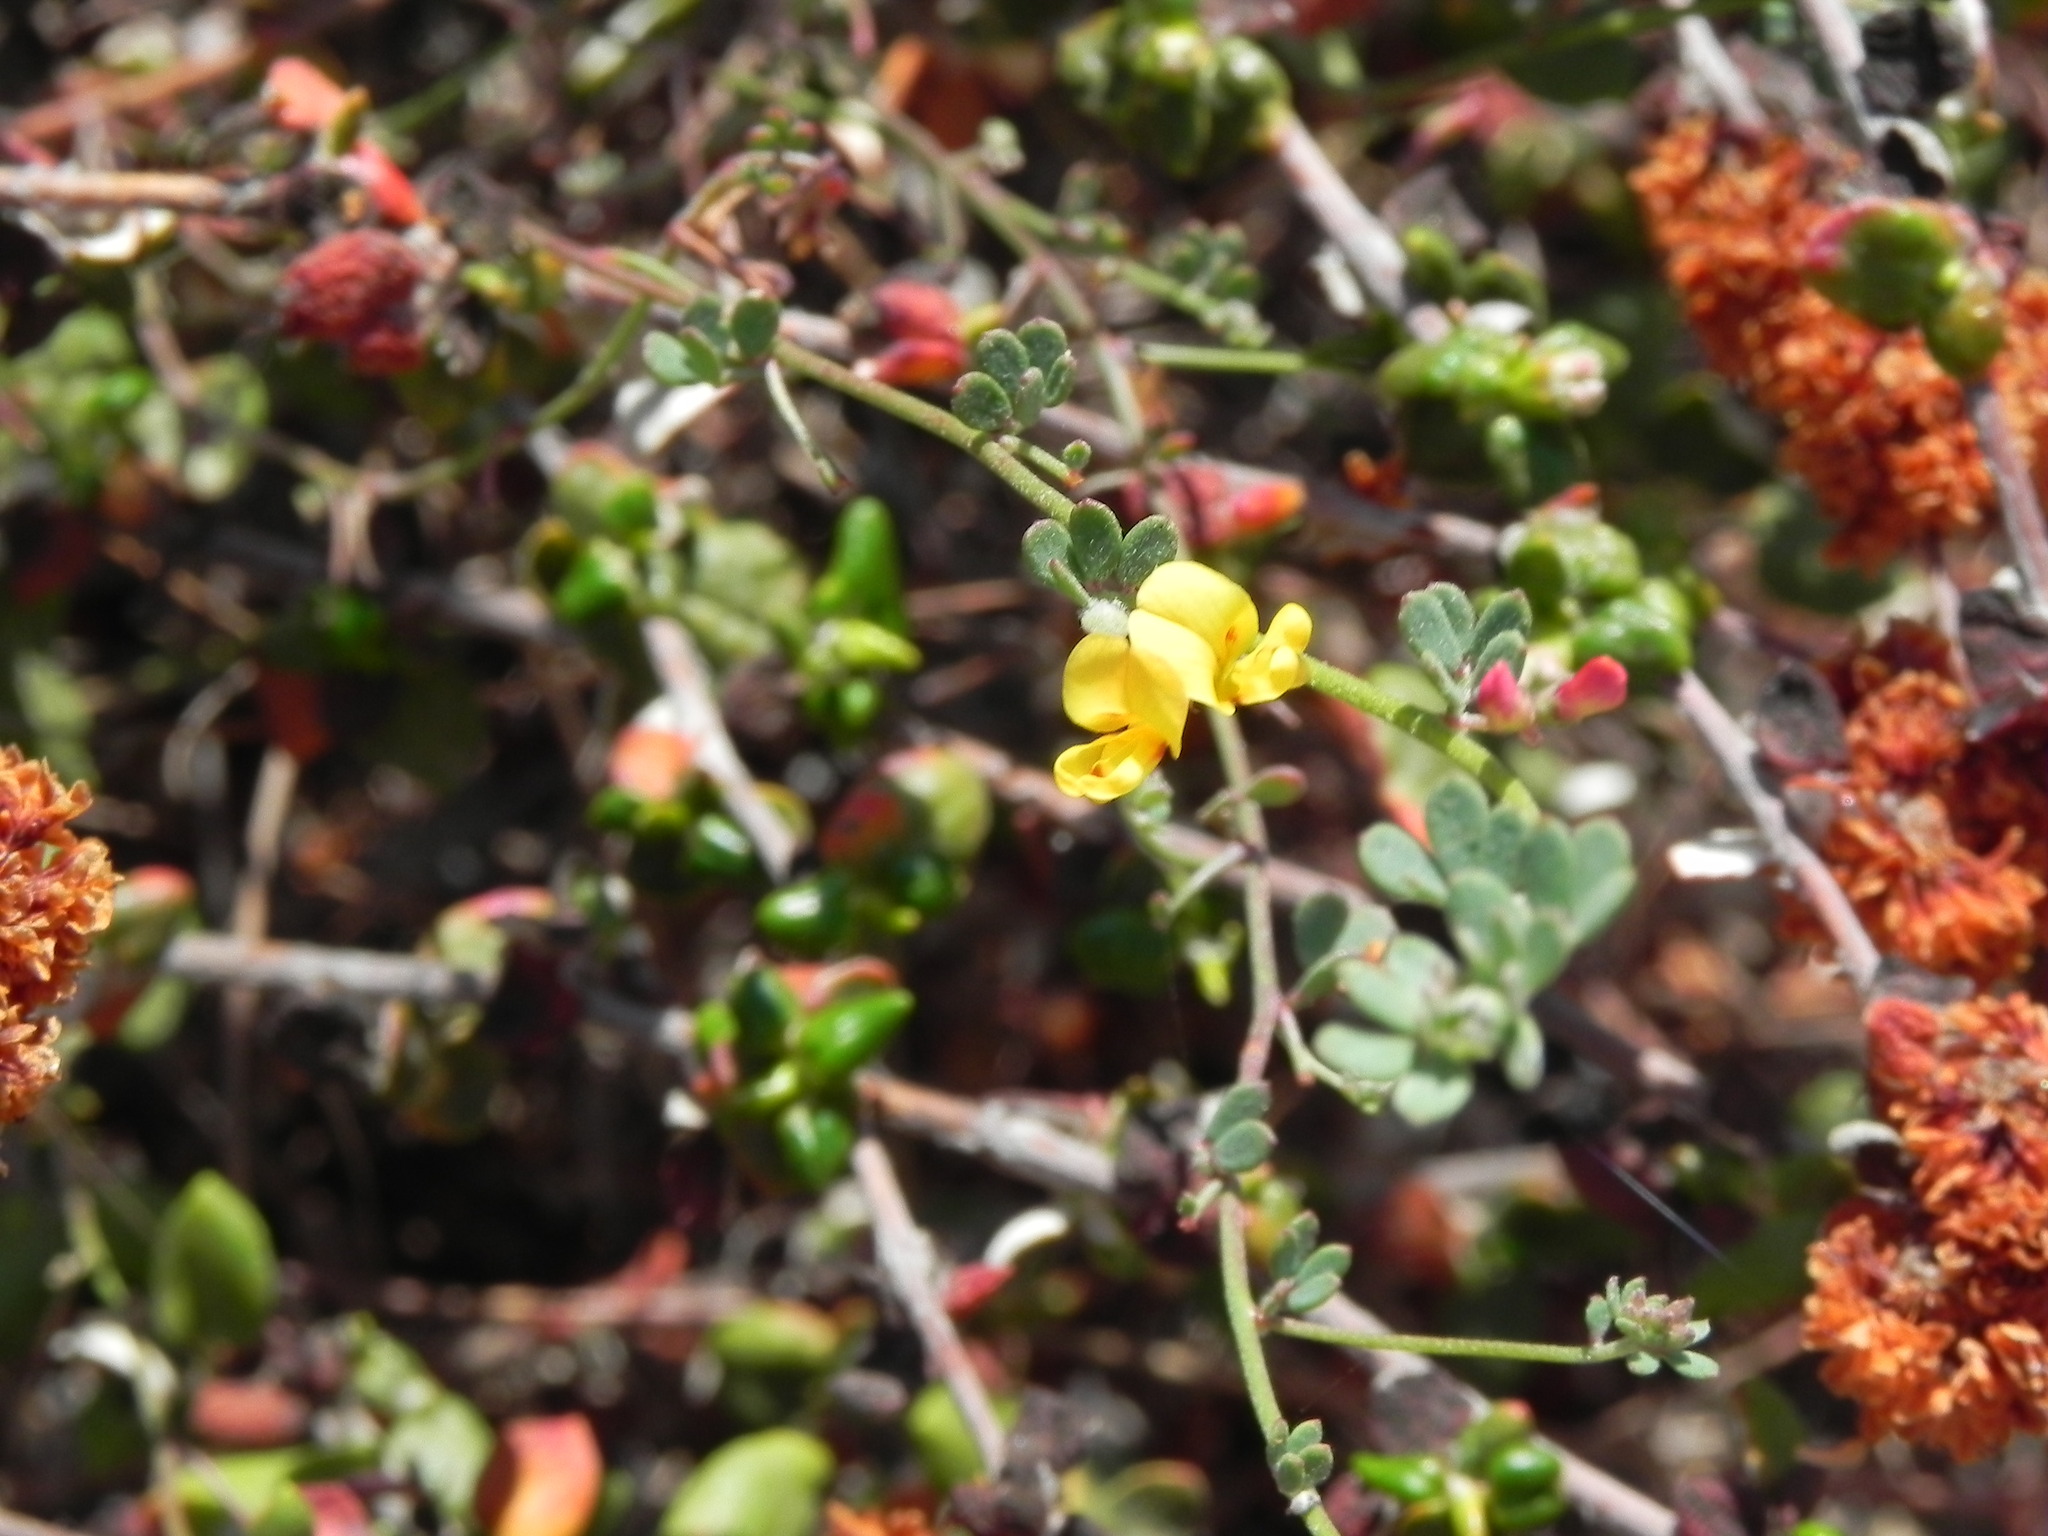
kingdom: Plantae
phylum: Tracheophyta
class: Magnoliopsida
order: Fabales
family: Fabaceae
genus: Acmispon
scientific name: Acmispon prostratus
